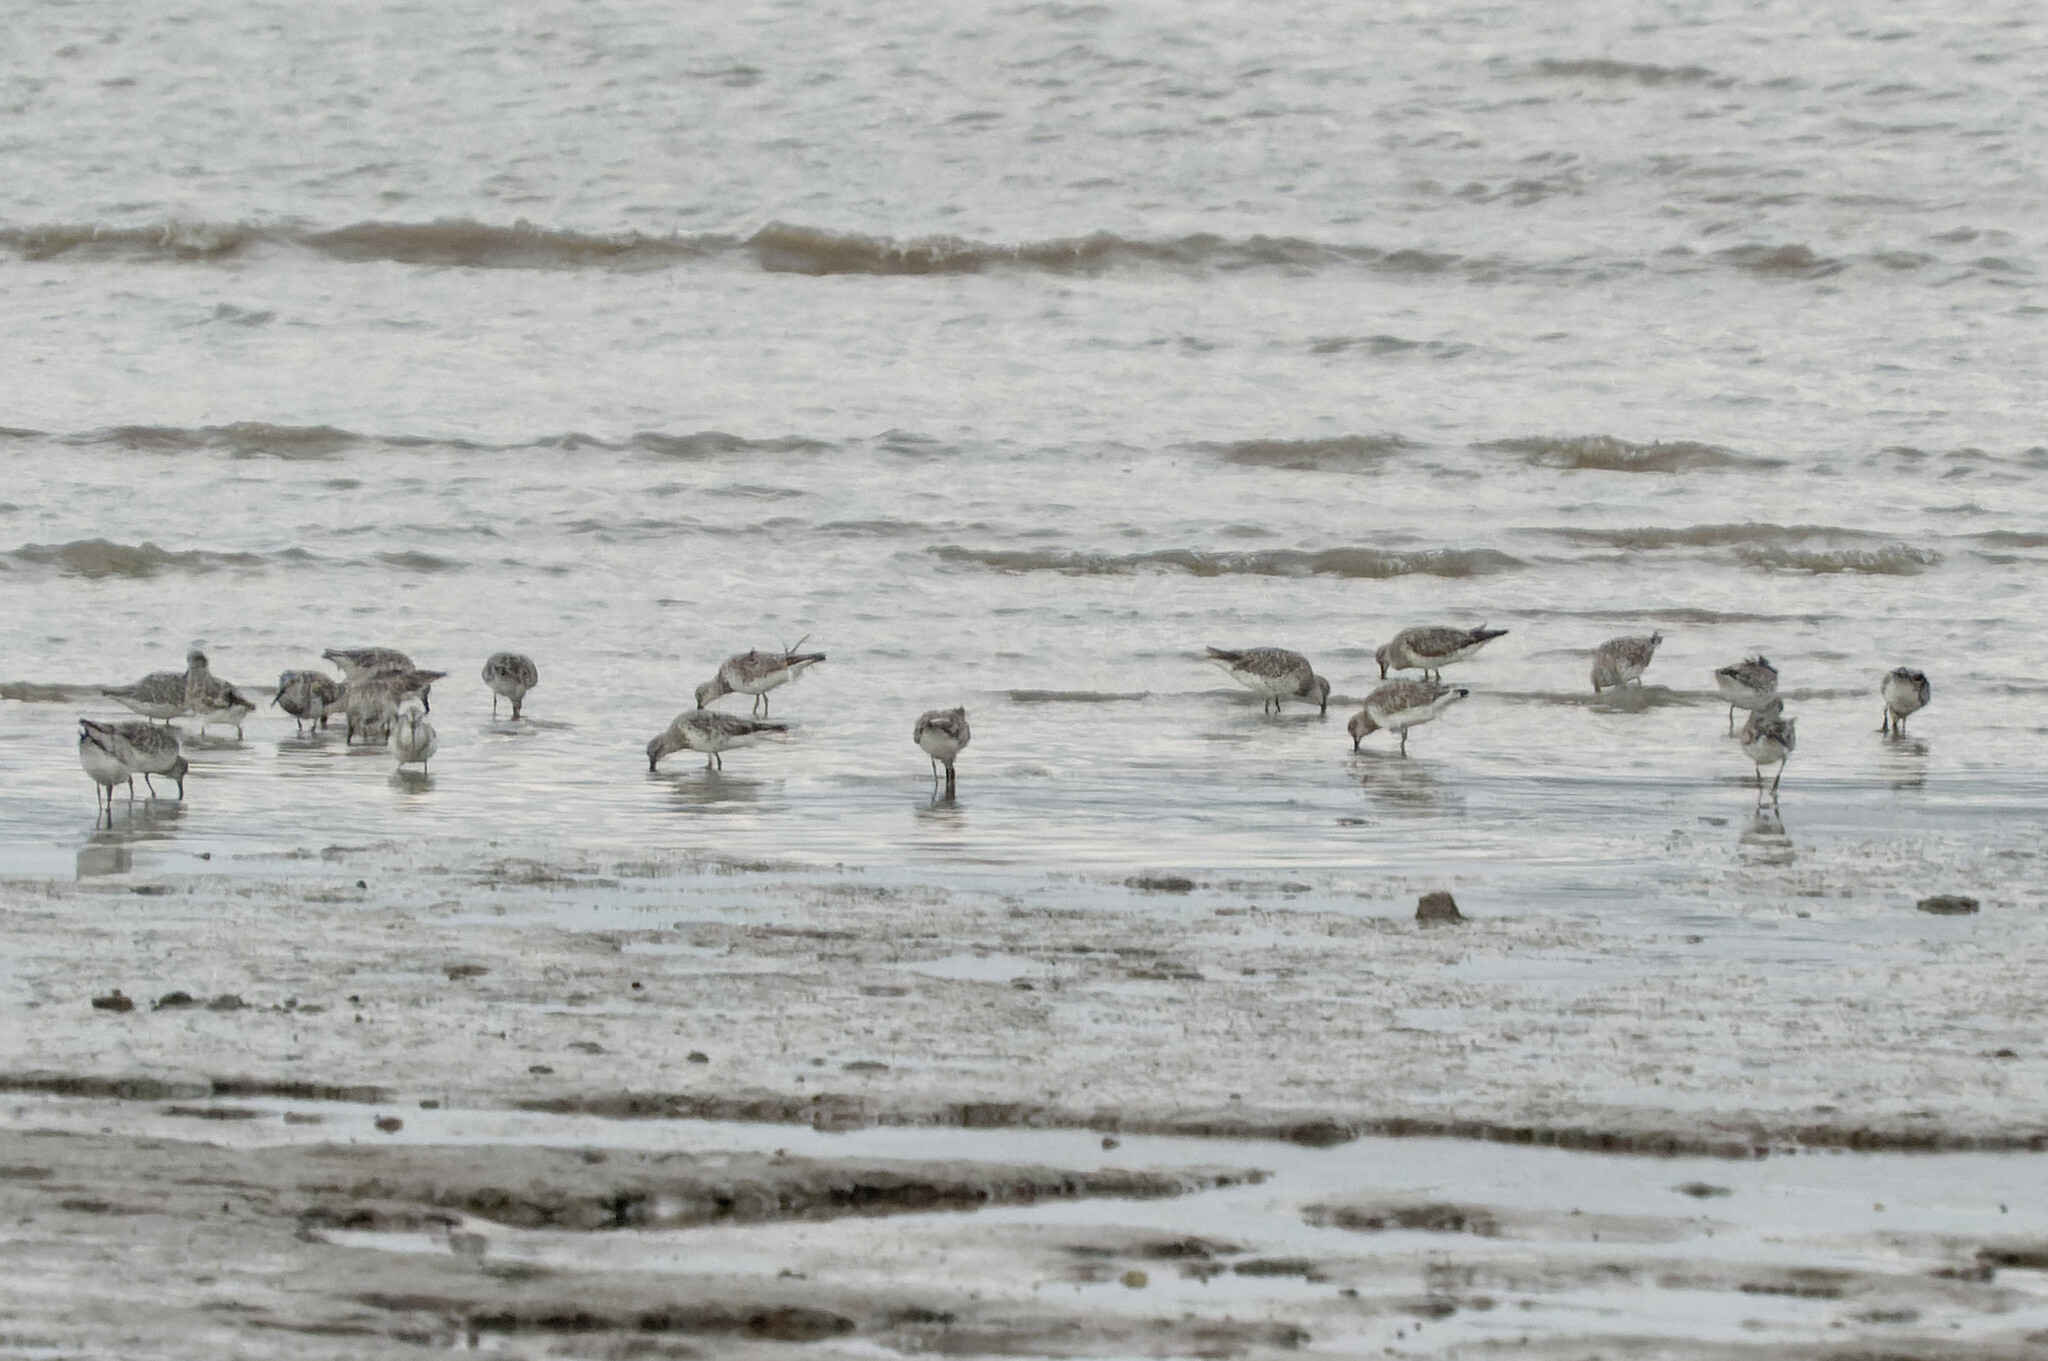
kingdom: Animalia
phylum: Chordata
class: Aves
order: Charadriiformes
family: Scolopacidae
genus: Calidris
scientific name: Calidris tenuirostris
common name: Great knot
